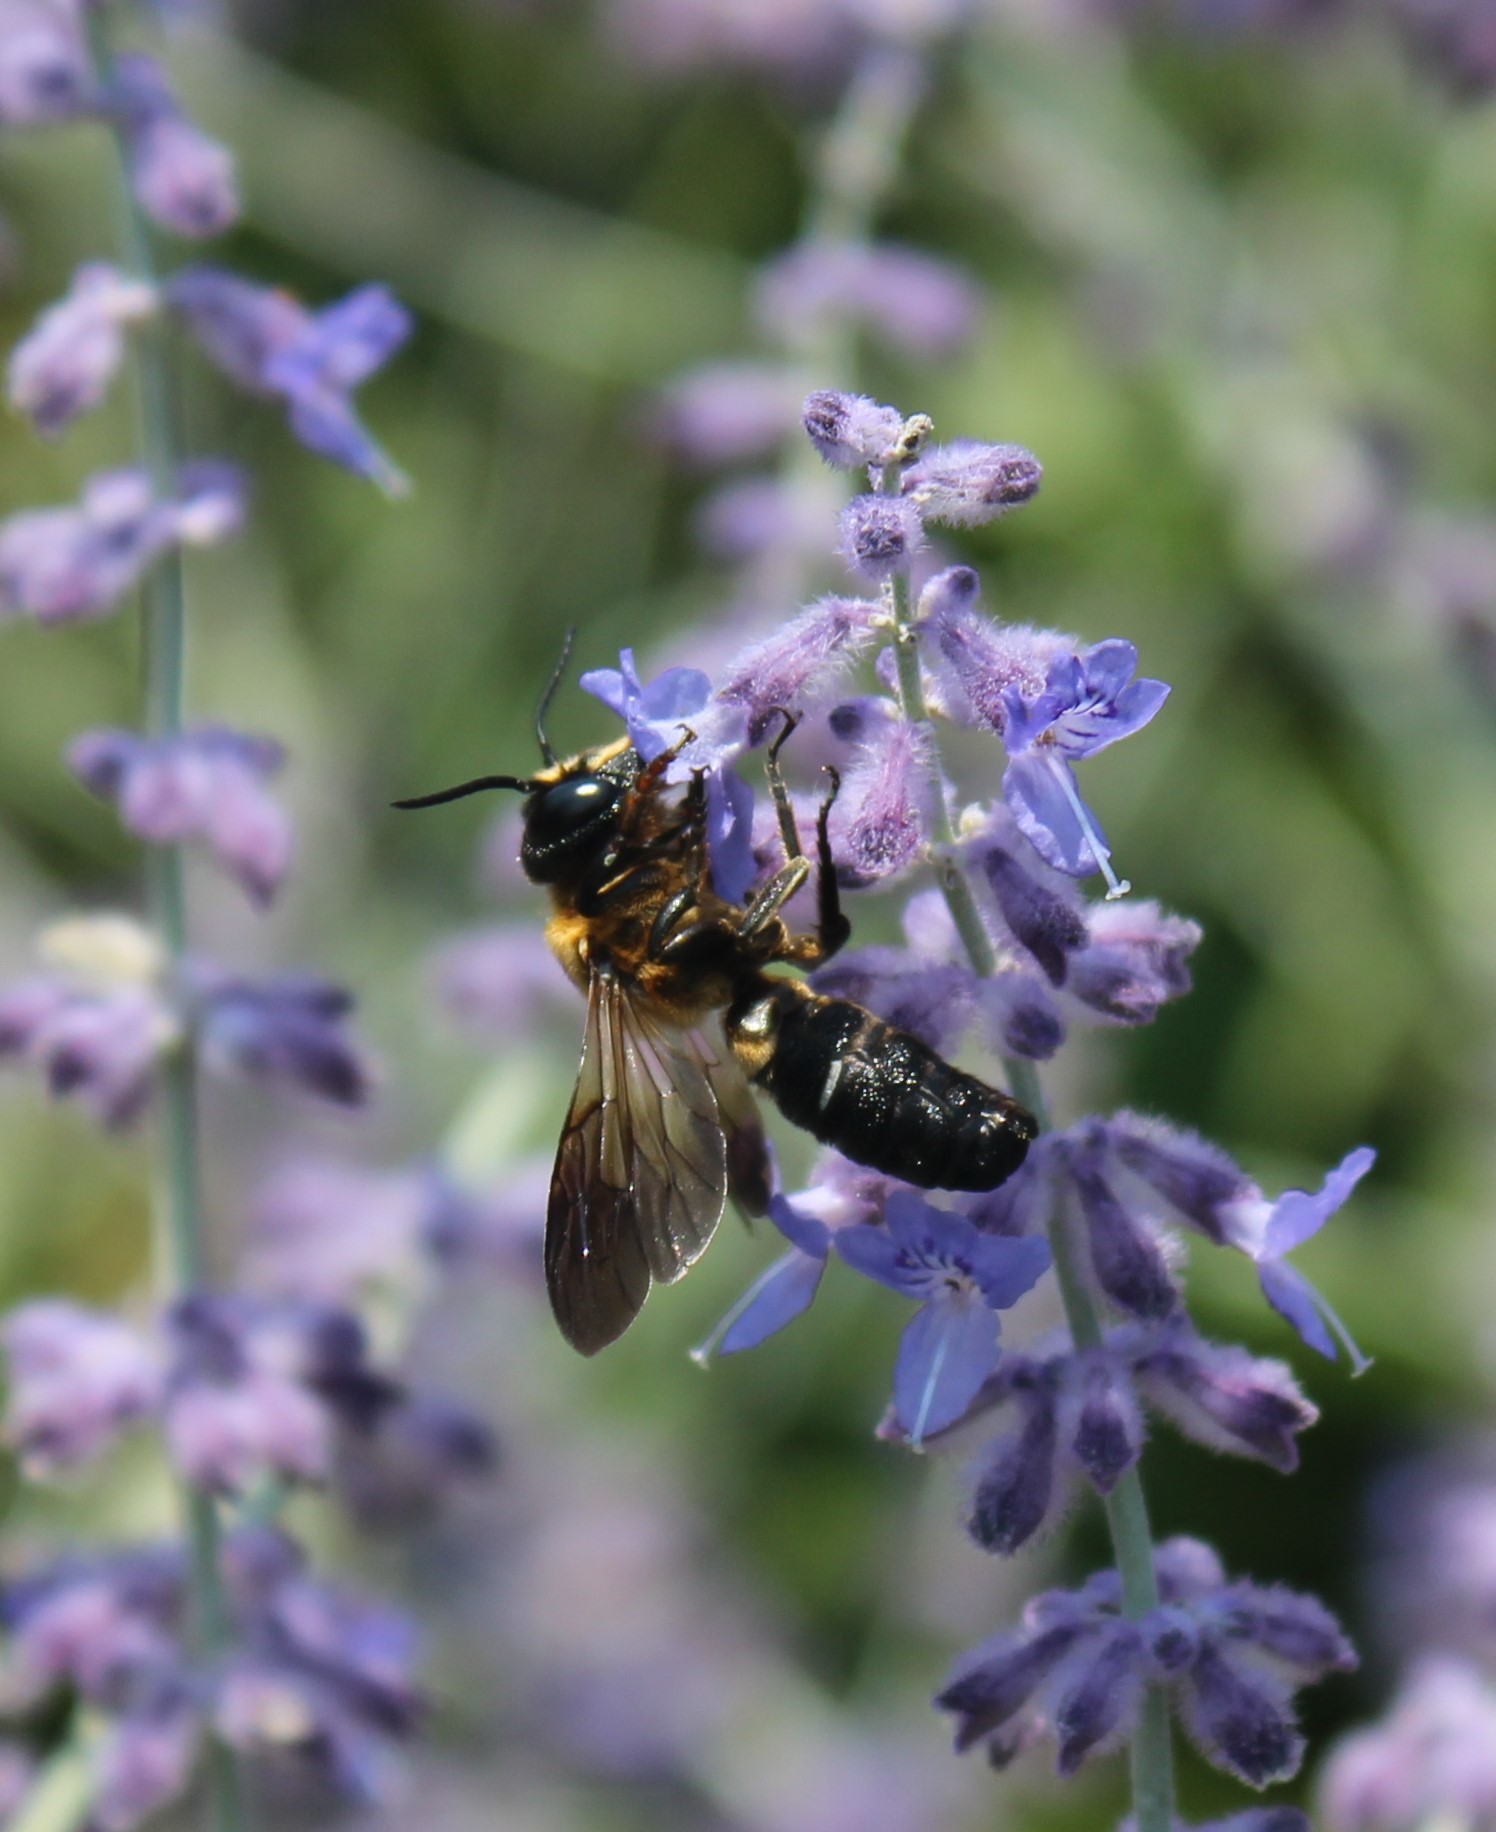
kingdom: Animalia
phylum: Arthropoda
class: Insecta
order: Hymenoptera
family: Megachilidae
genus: Megachile
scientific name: Megachile sculpturalis
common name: Sculptured resin bee
